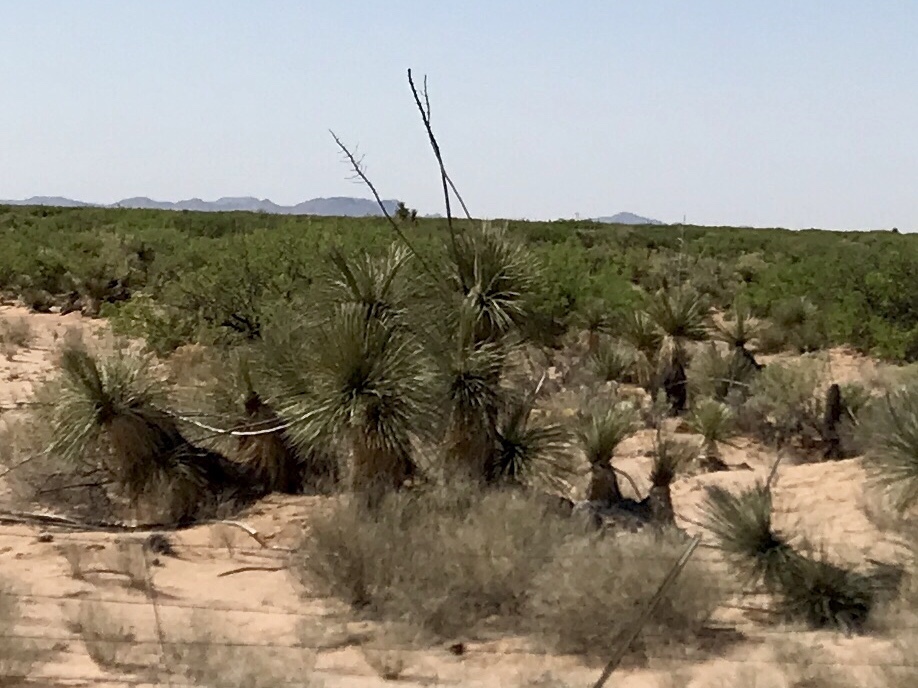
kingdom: Plantae
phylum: Tracheophyta
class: Liliopsida
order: Asparagales
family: Asparagaceae
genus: Yucca
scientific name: Yucca elata
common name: Palmella
